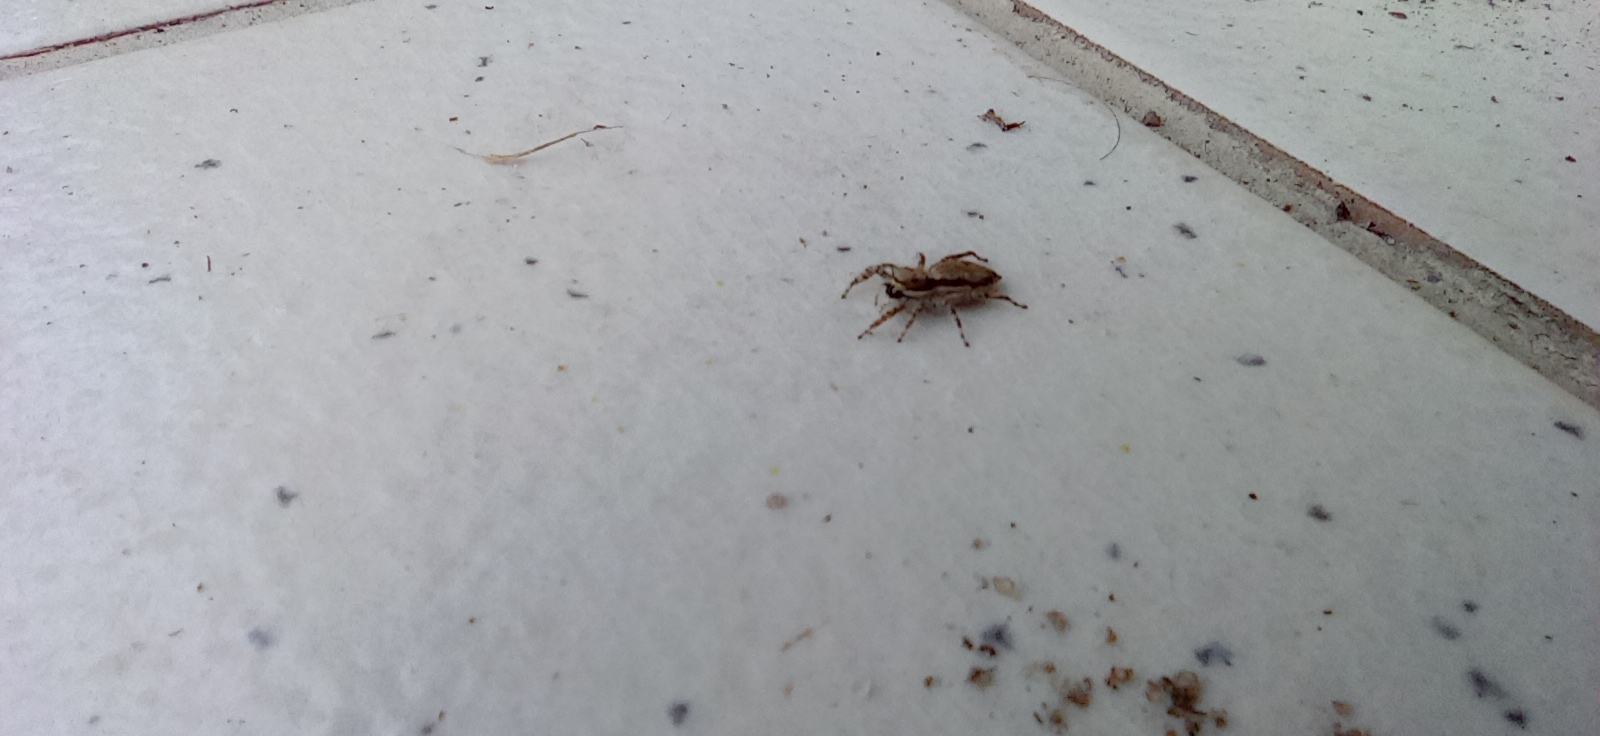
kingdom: Animalia
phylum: Arthropoda
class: Arachnida
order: Araneae
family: Salticidae
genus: Menemerus
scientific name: Menemerus bivittatus
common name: Gray wall jumper
